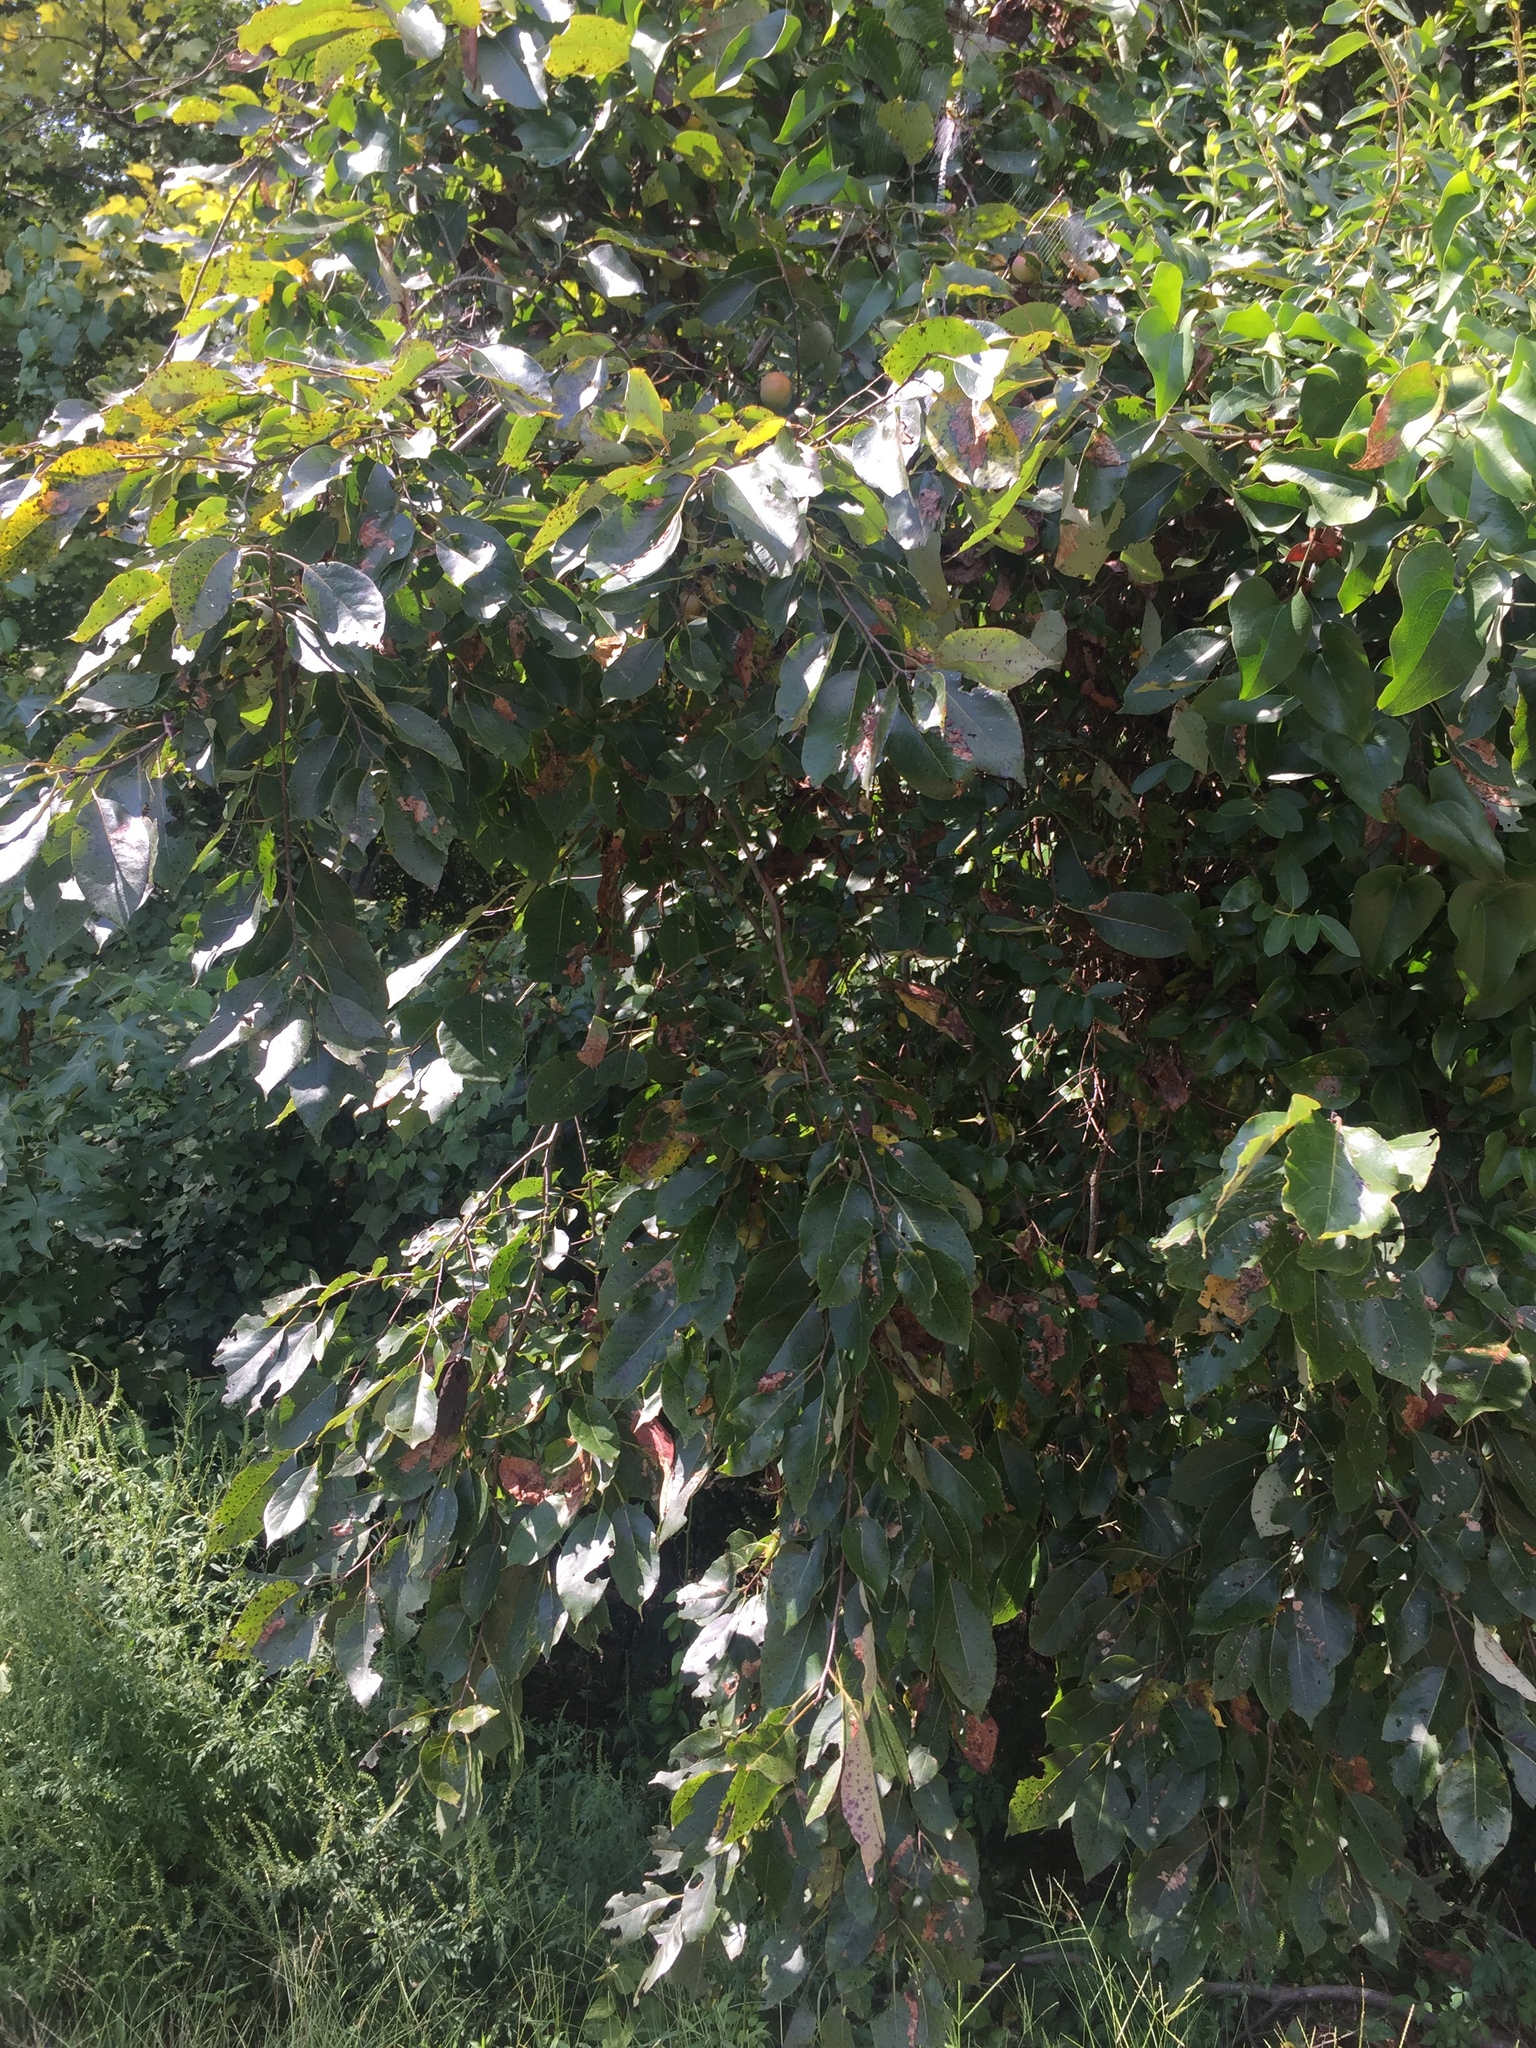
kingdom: Plantae
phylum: Tracheophyta
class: Magnoliopsida
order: Ericales
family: Ebenaceae
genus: Diospyros
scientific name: Diospyros virginiana
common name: Persimmon
